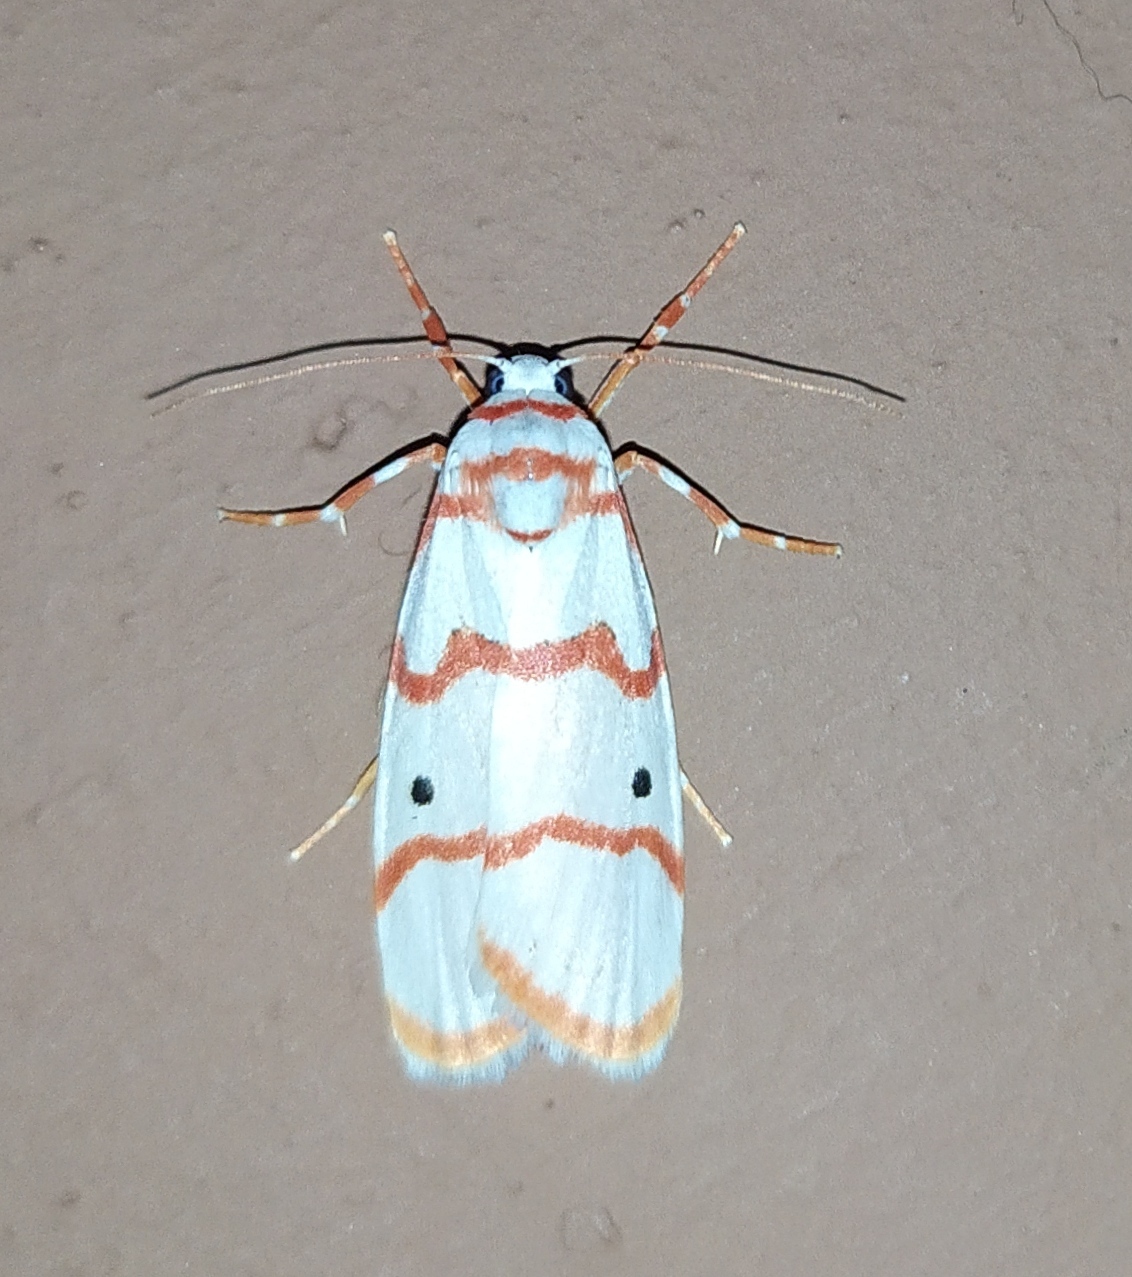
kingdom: Animalia
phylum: Arthropoda
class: Insecta
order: Lepidoptera
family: Erebidae
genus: Cyana
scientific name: Cyana puella
